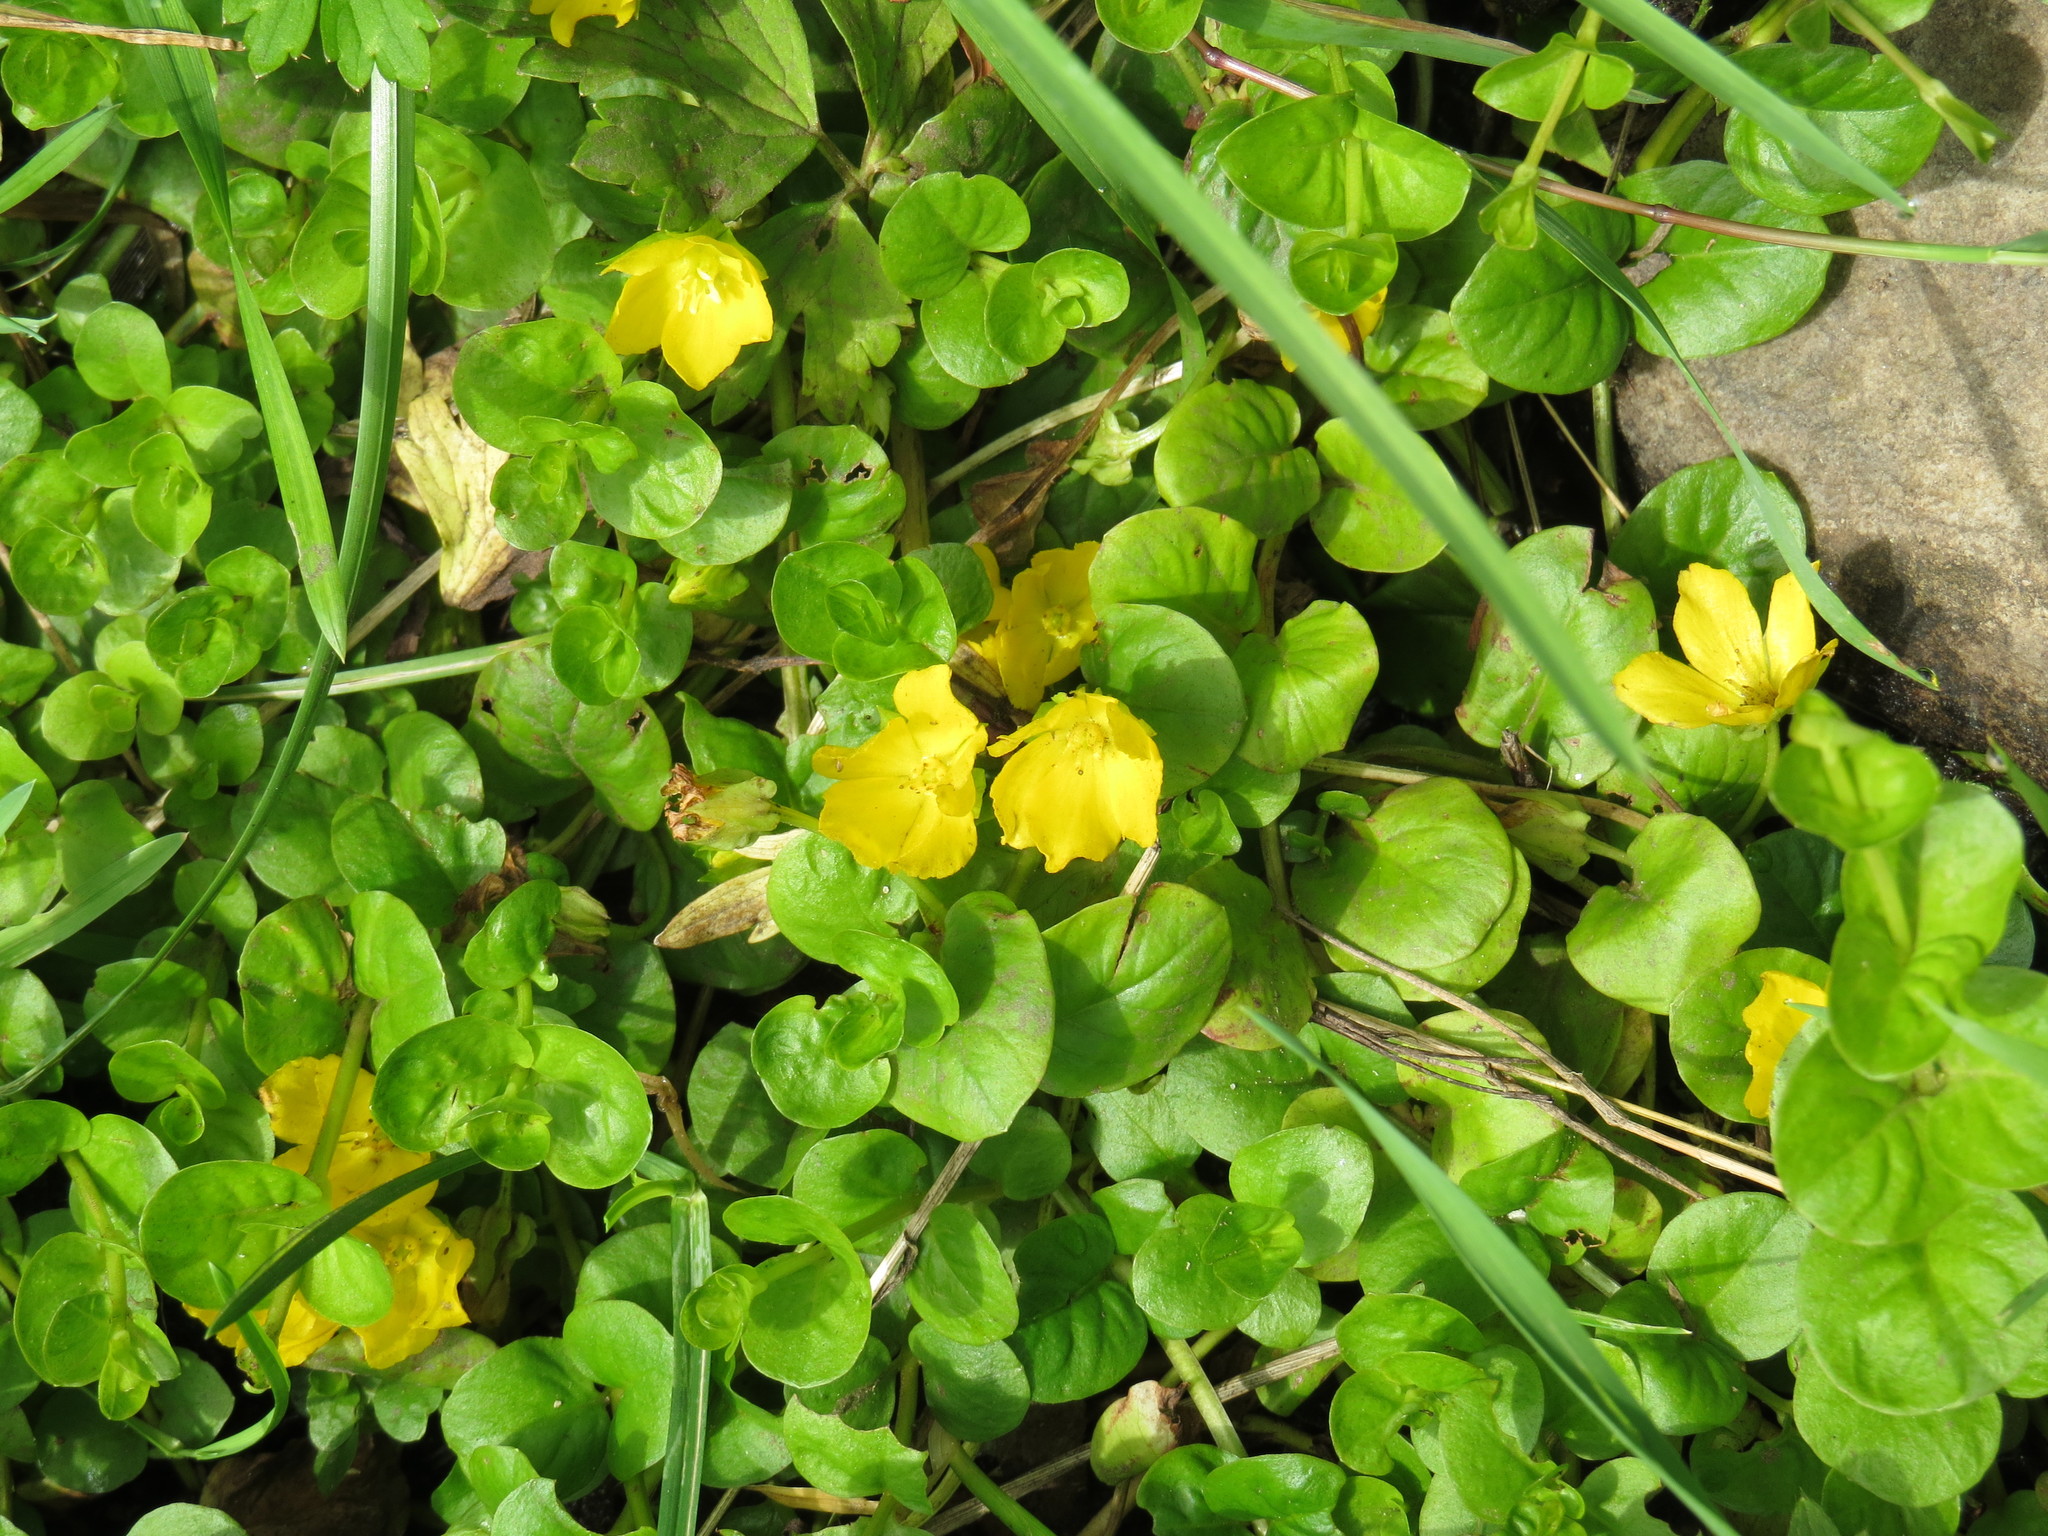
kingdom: Plantae
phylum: Tracheophyta
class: Magnoliopsida
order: Ericales
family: Primulaceae
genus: Lysimachia
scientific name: Lysimachia nummularia
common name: Moneywort
